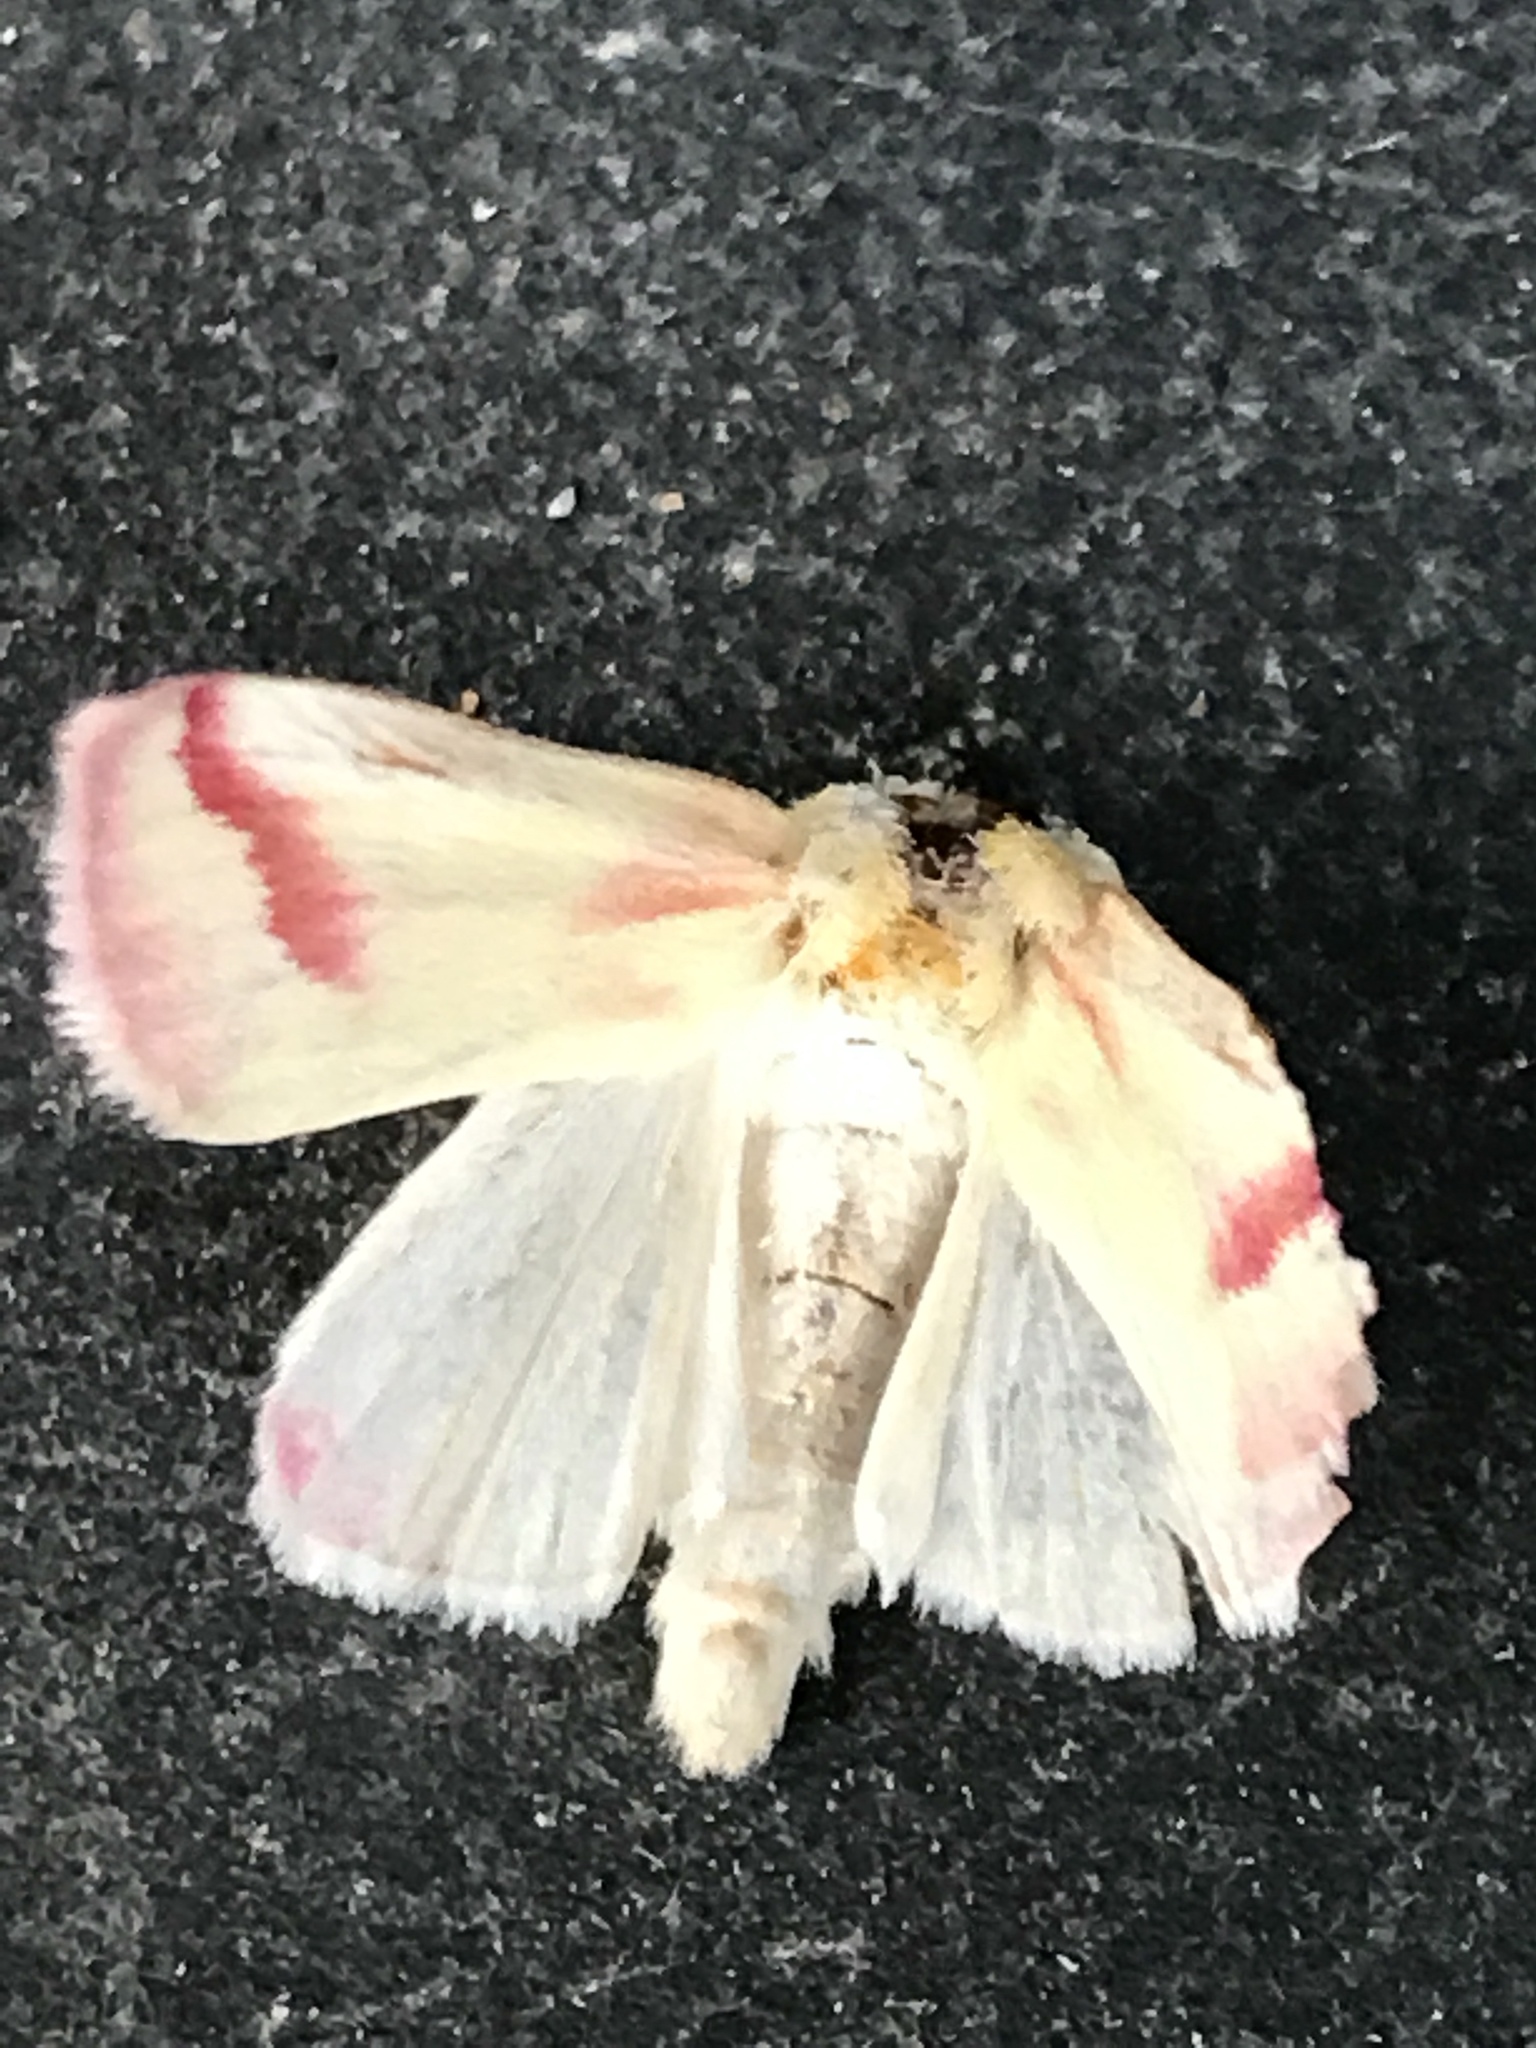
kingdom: Animalia
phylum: Arthropoda
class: Insecta
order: Lepidoptera
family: Noctuidae
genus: Schinia
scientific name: Schinia gaurae
